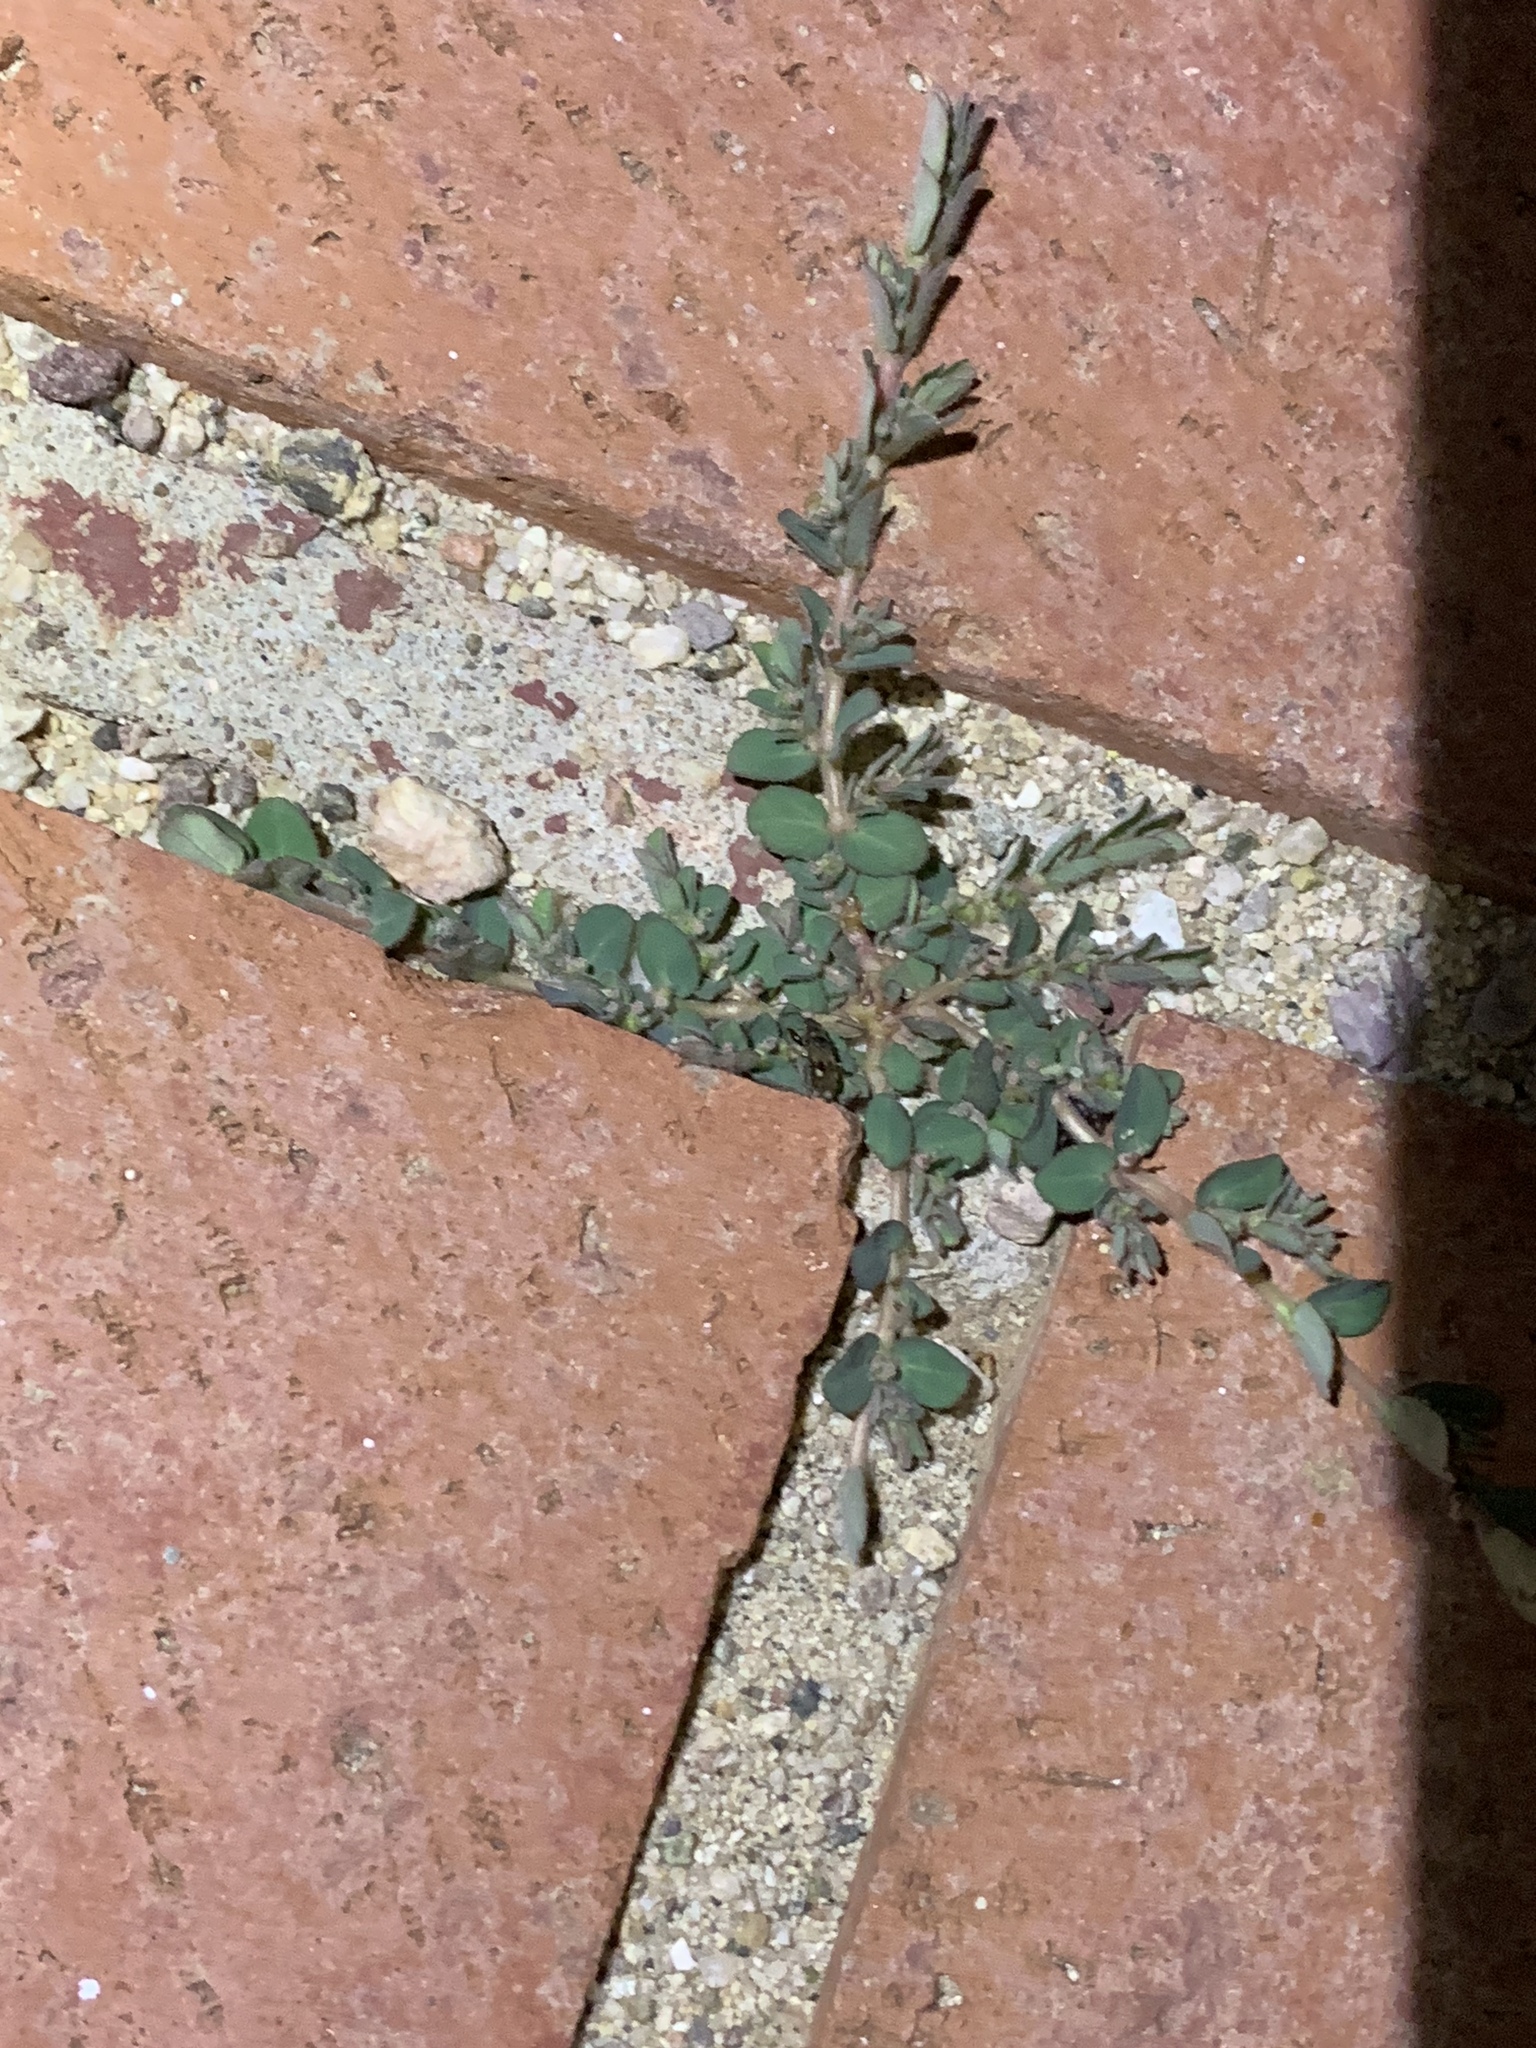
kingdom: Plantae
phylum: Tracheophyta
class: Magnoliopsida
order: Malpighiales
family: Euphorbiaceae
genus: Euphorbia
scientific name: Euphorbia prostrata
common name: Prostrate sandmat
